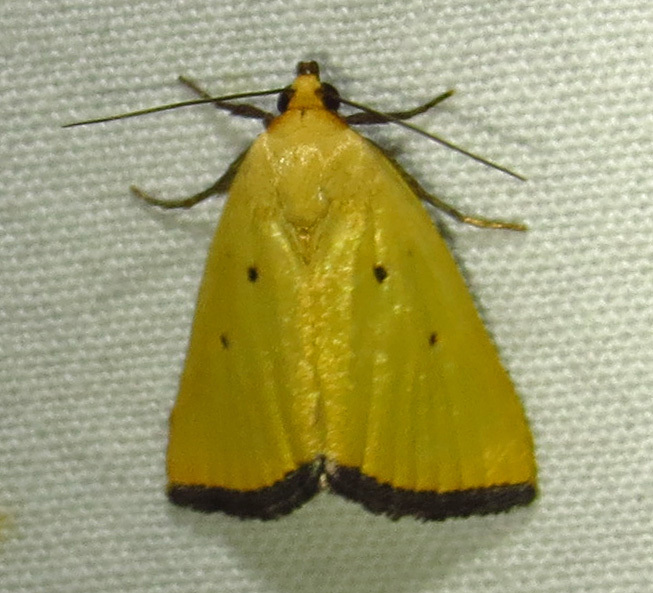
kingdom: Animalia
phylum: Arthropoda
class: Insecta
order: Lepidoptera
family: Noctuidae
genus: Marimatha
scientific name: Marimatha nigrofimbria
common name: Black-bordered lemon moth
